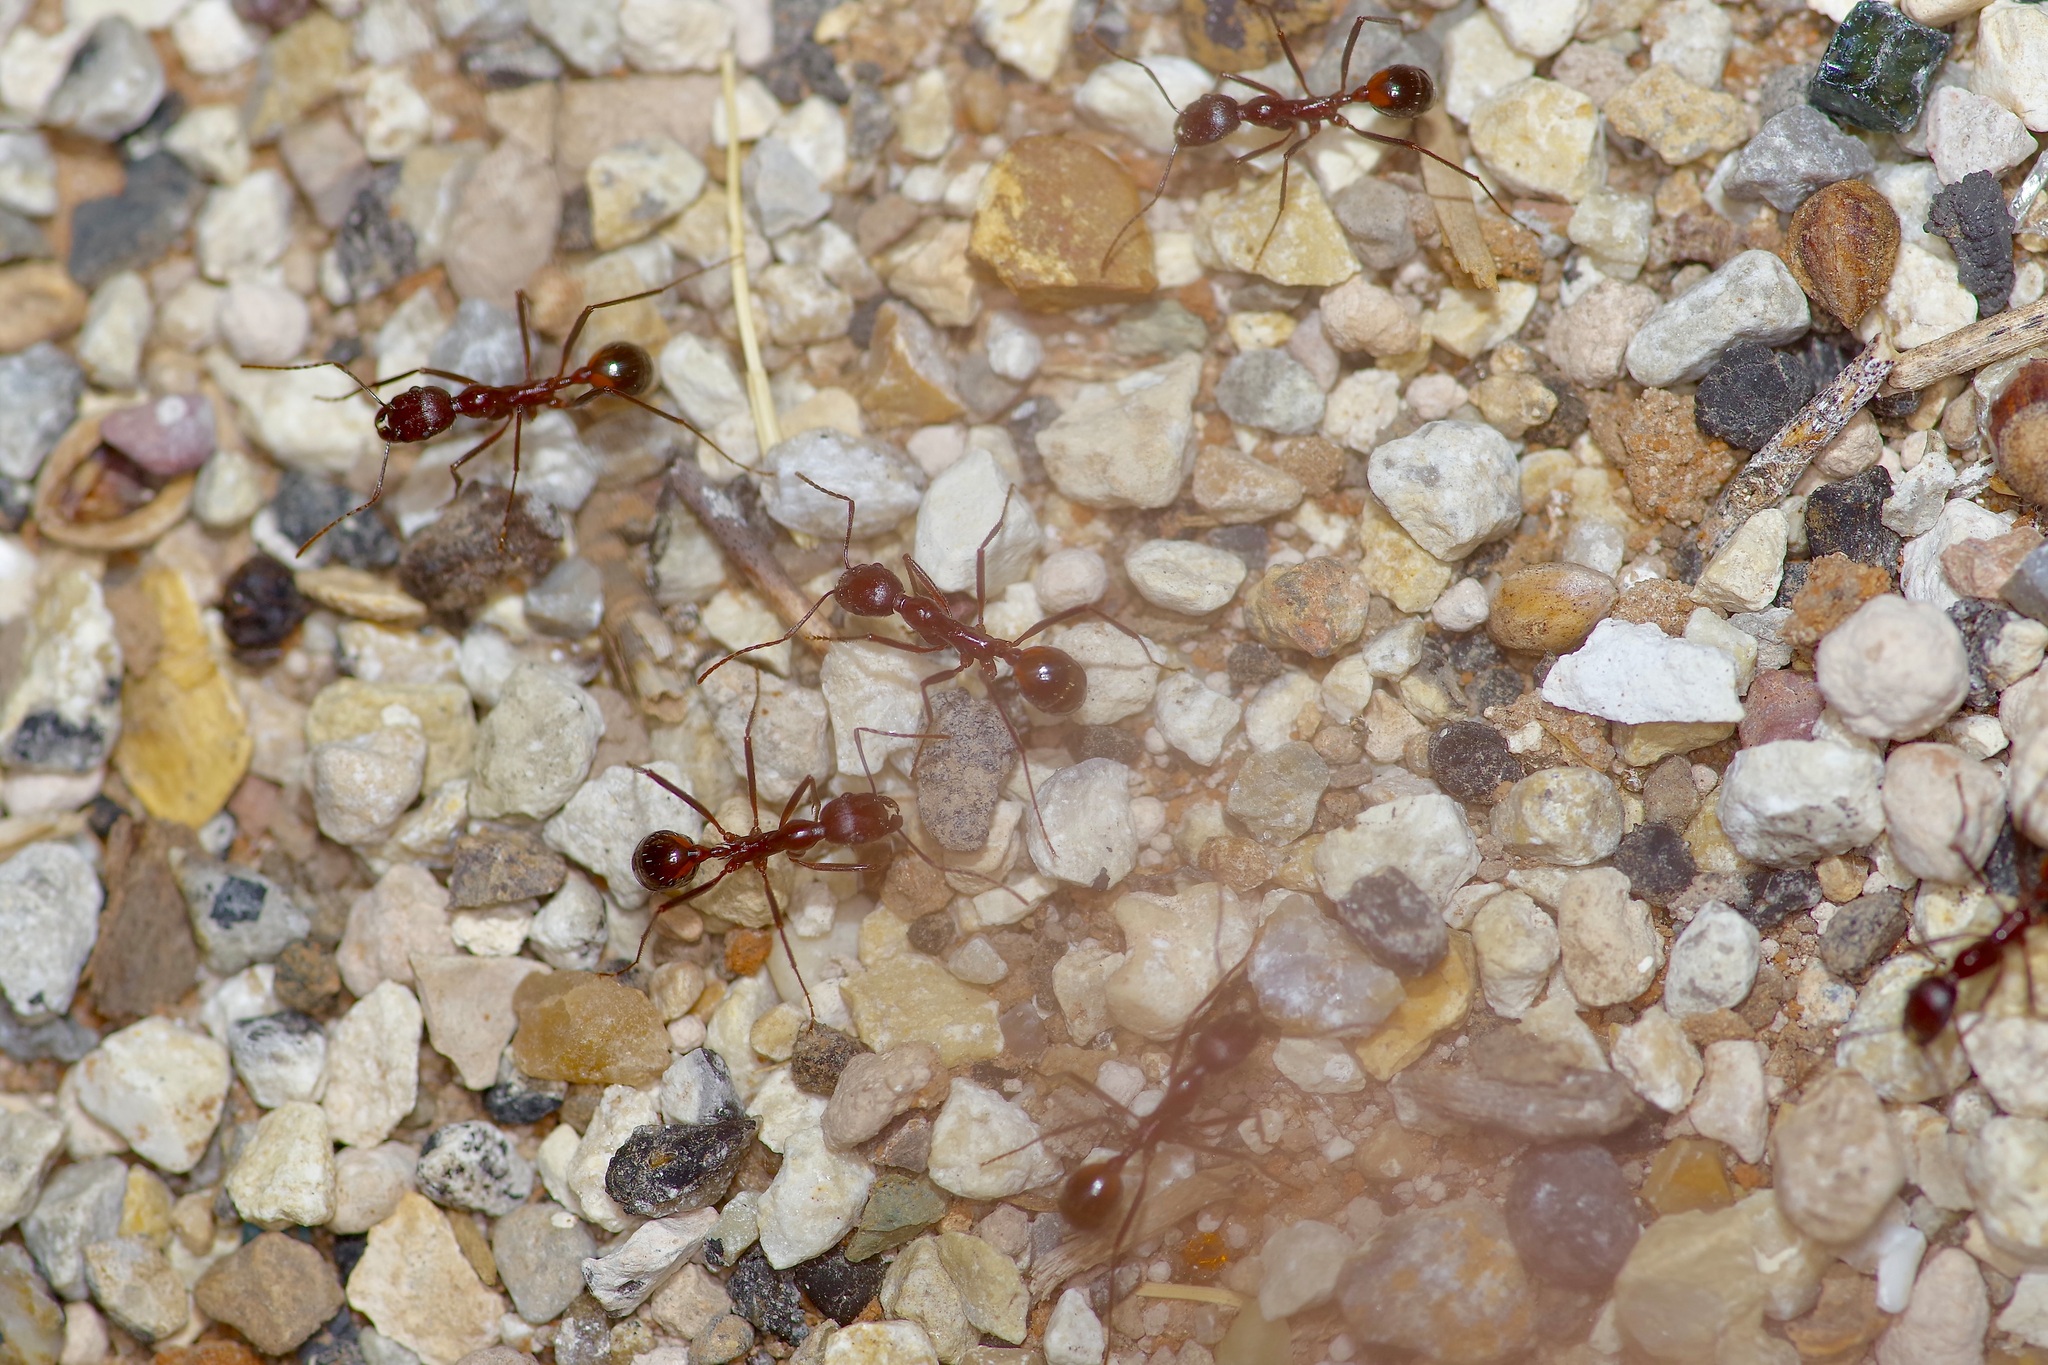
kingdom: Animalia
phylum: Arthropoda
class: Insecta
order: Hymenoptera
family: Formicidae
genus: Novomessor
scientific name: Novomessor cockerelli
